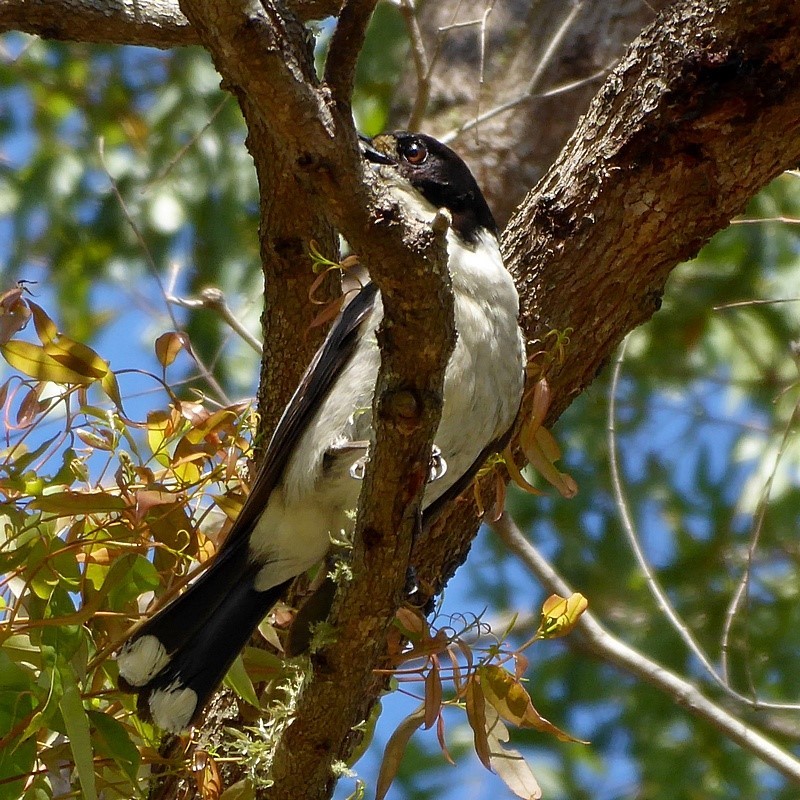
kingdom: Animalia
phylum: Chordata
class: Aves
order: Passeriformes
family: Cracticidae
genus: Cracticus
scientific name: Cracticus torquatus
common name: Grey butcherbird
